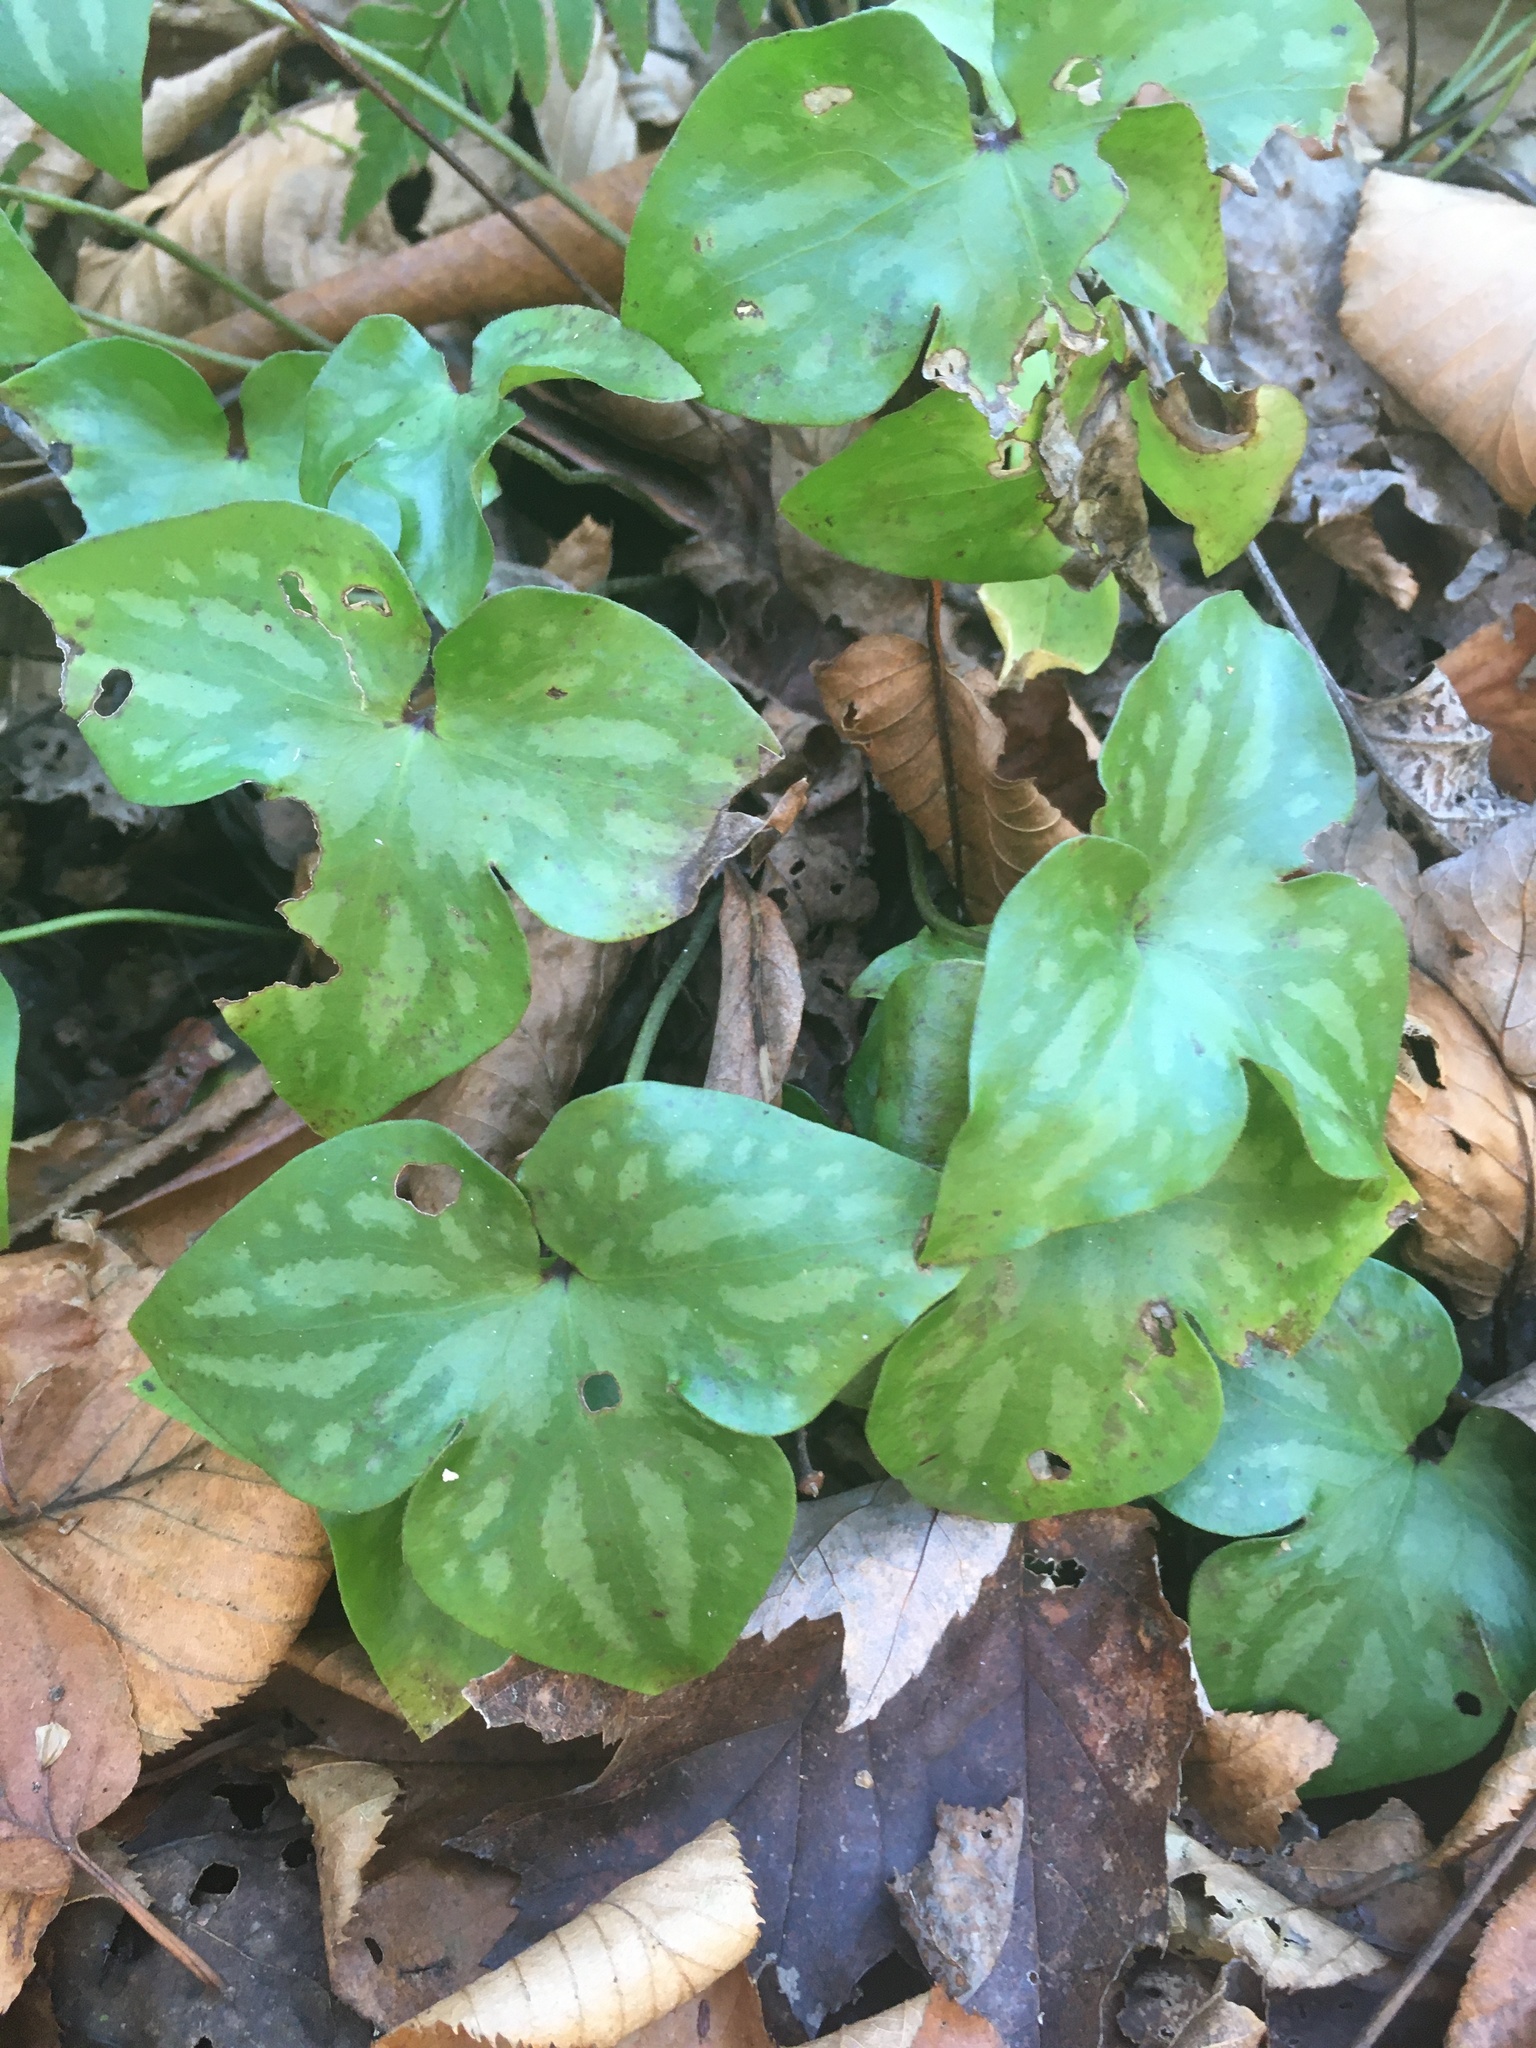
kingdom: Plantae
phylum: Tracheophyta
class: Magnoliopsida
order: Ranunculales
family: Ranunculaceae
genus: Hepatica
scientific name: Hepatica acutiloba
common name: Sharp-lobed hepatica
